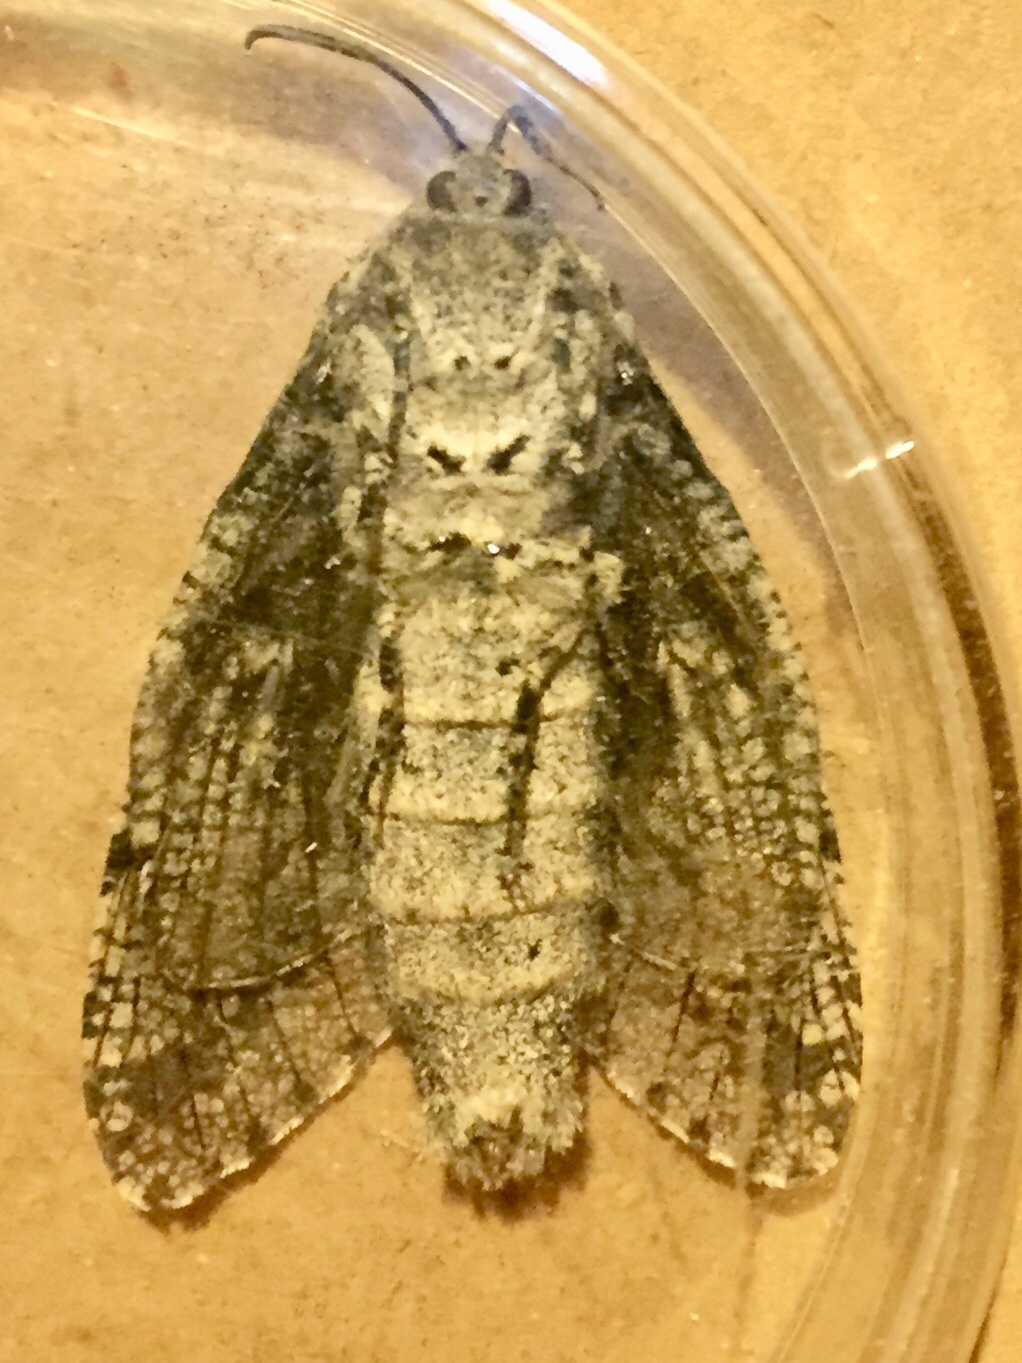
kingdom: Animalia
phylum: Arthropoda
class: Insecta
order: Lepidoptera
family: Cossidae
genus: Prionoxystus
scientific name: Prionoxystus robiniae
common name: Carpenterworm
